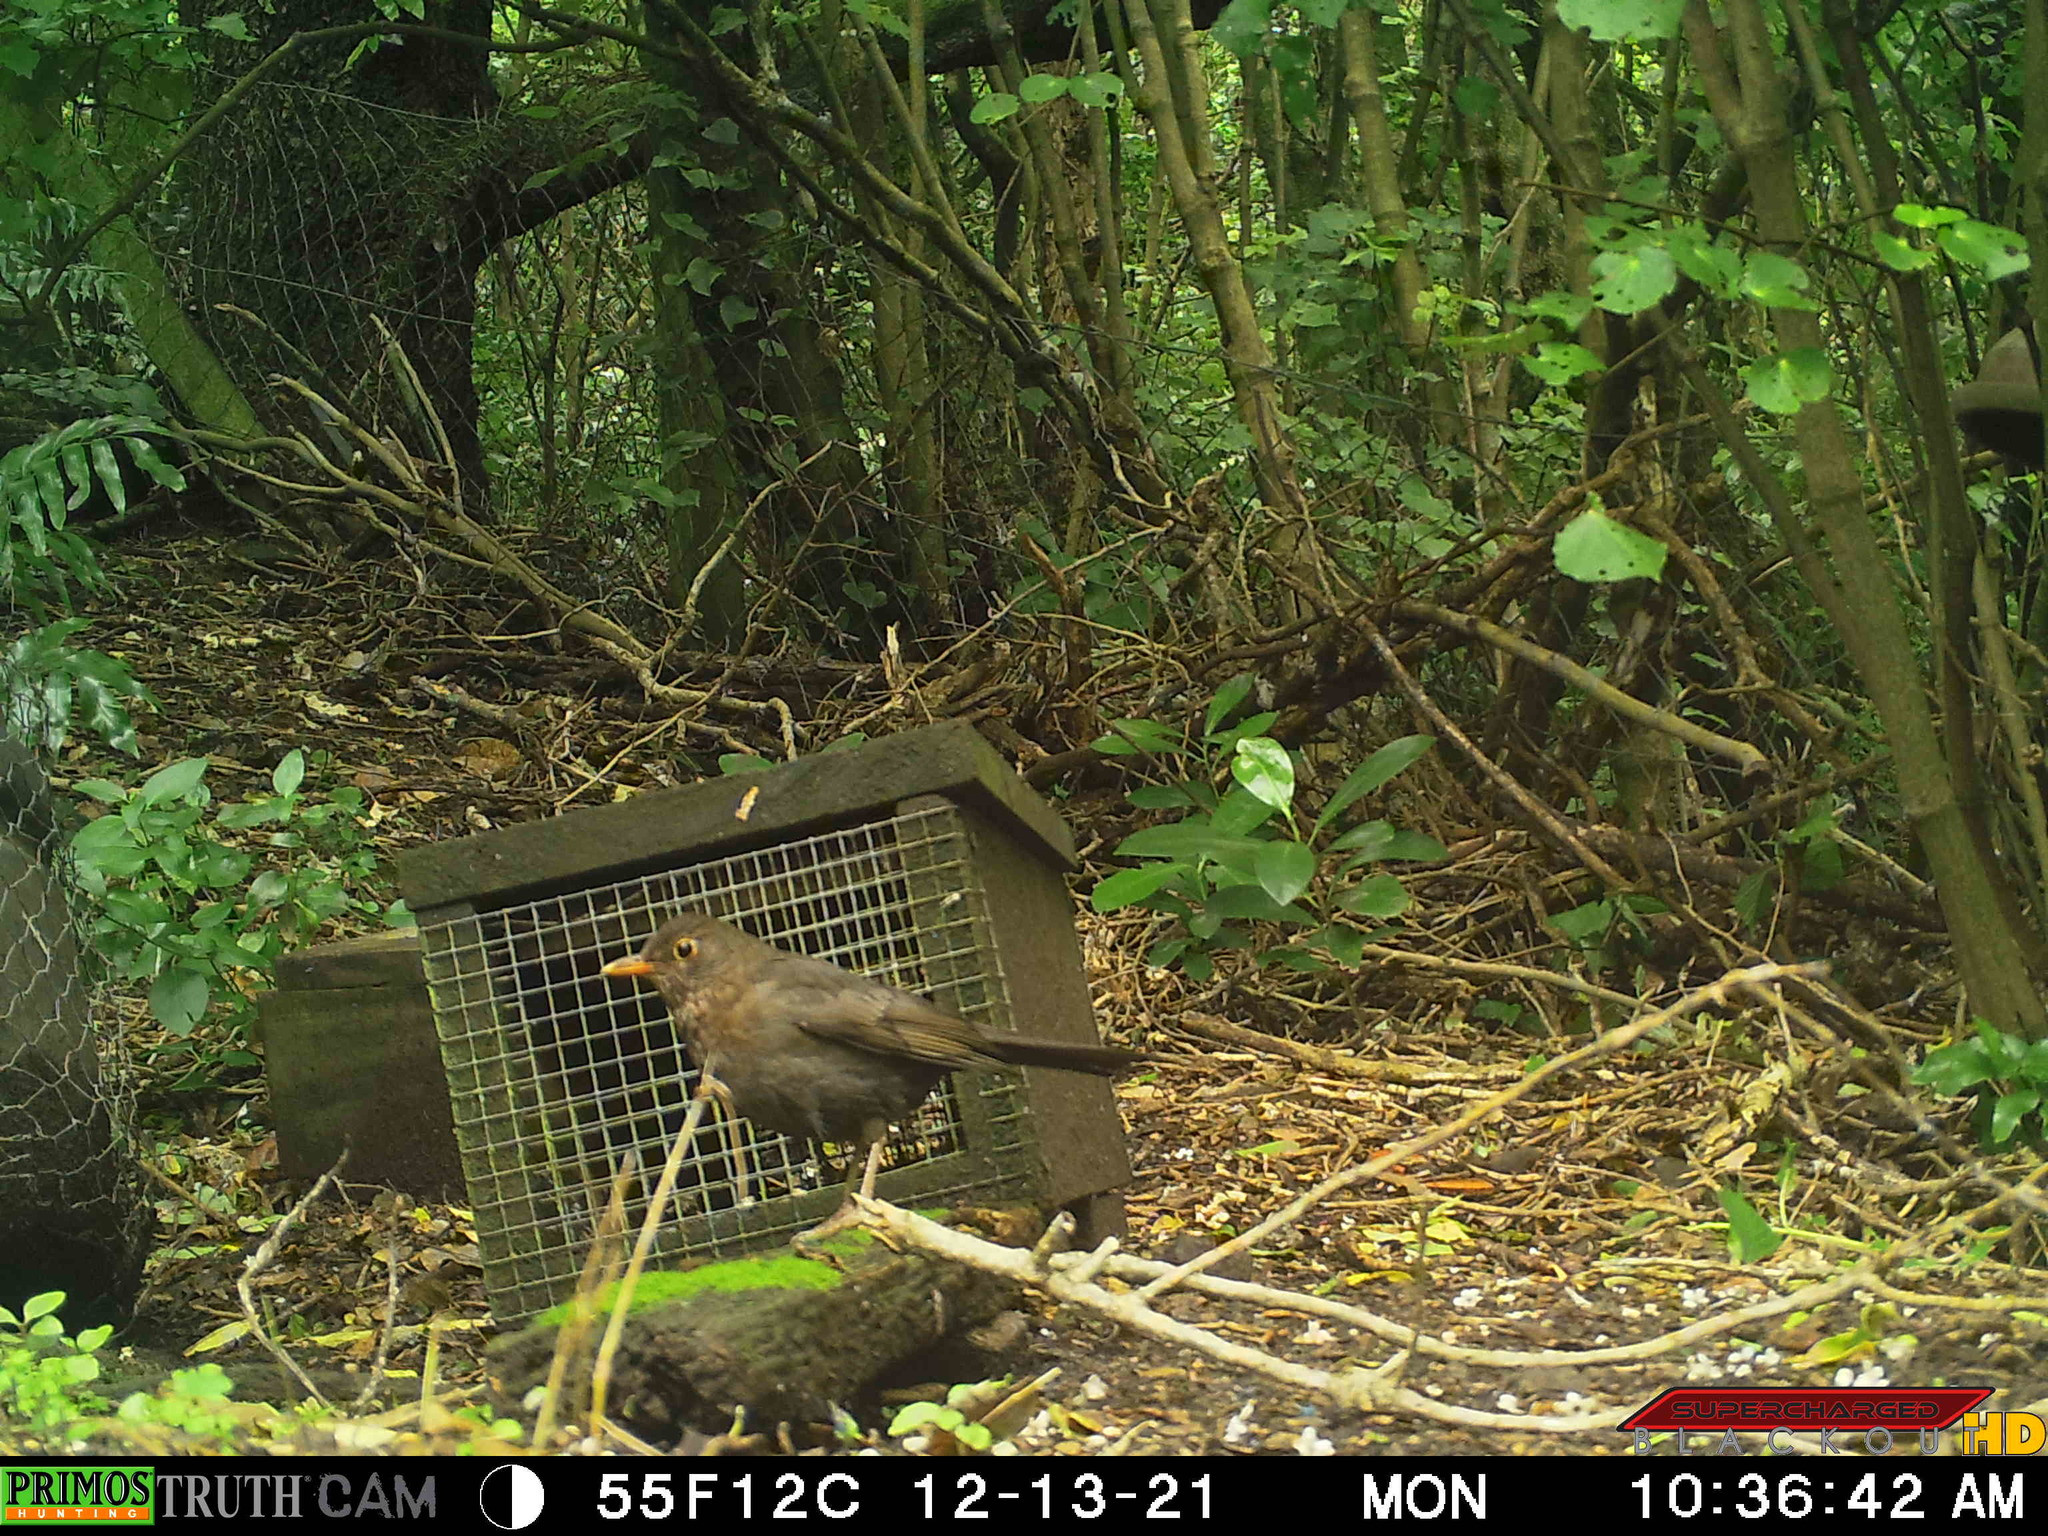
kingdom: Animalia
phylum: Chordata
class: Aves
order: Passeriformes
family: Turdidae
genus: Turdus
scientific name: Turdus merula
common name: Common blackbird
